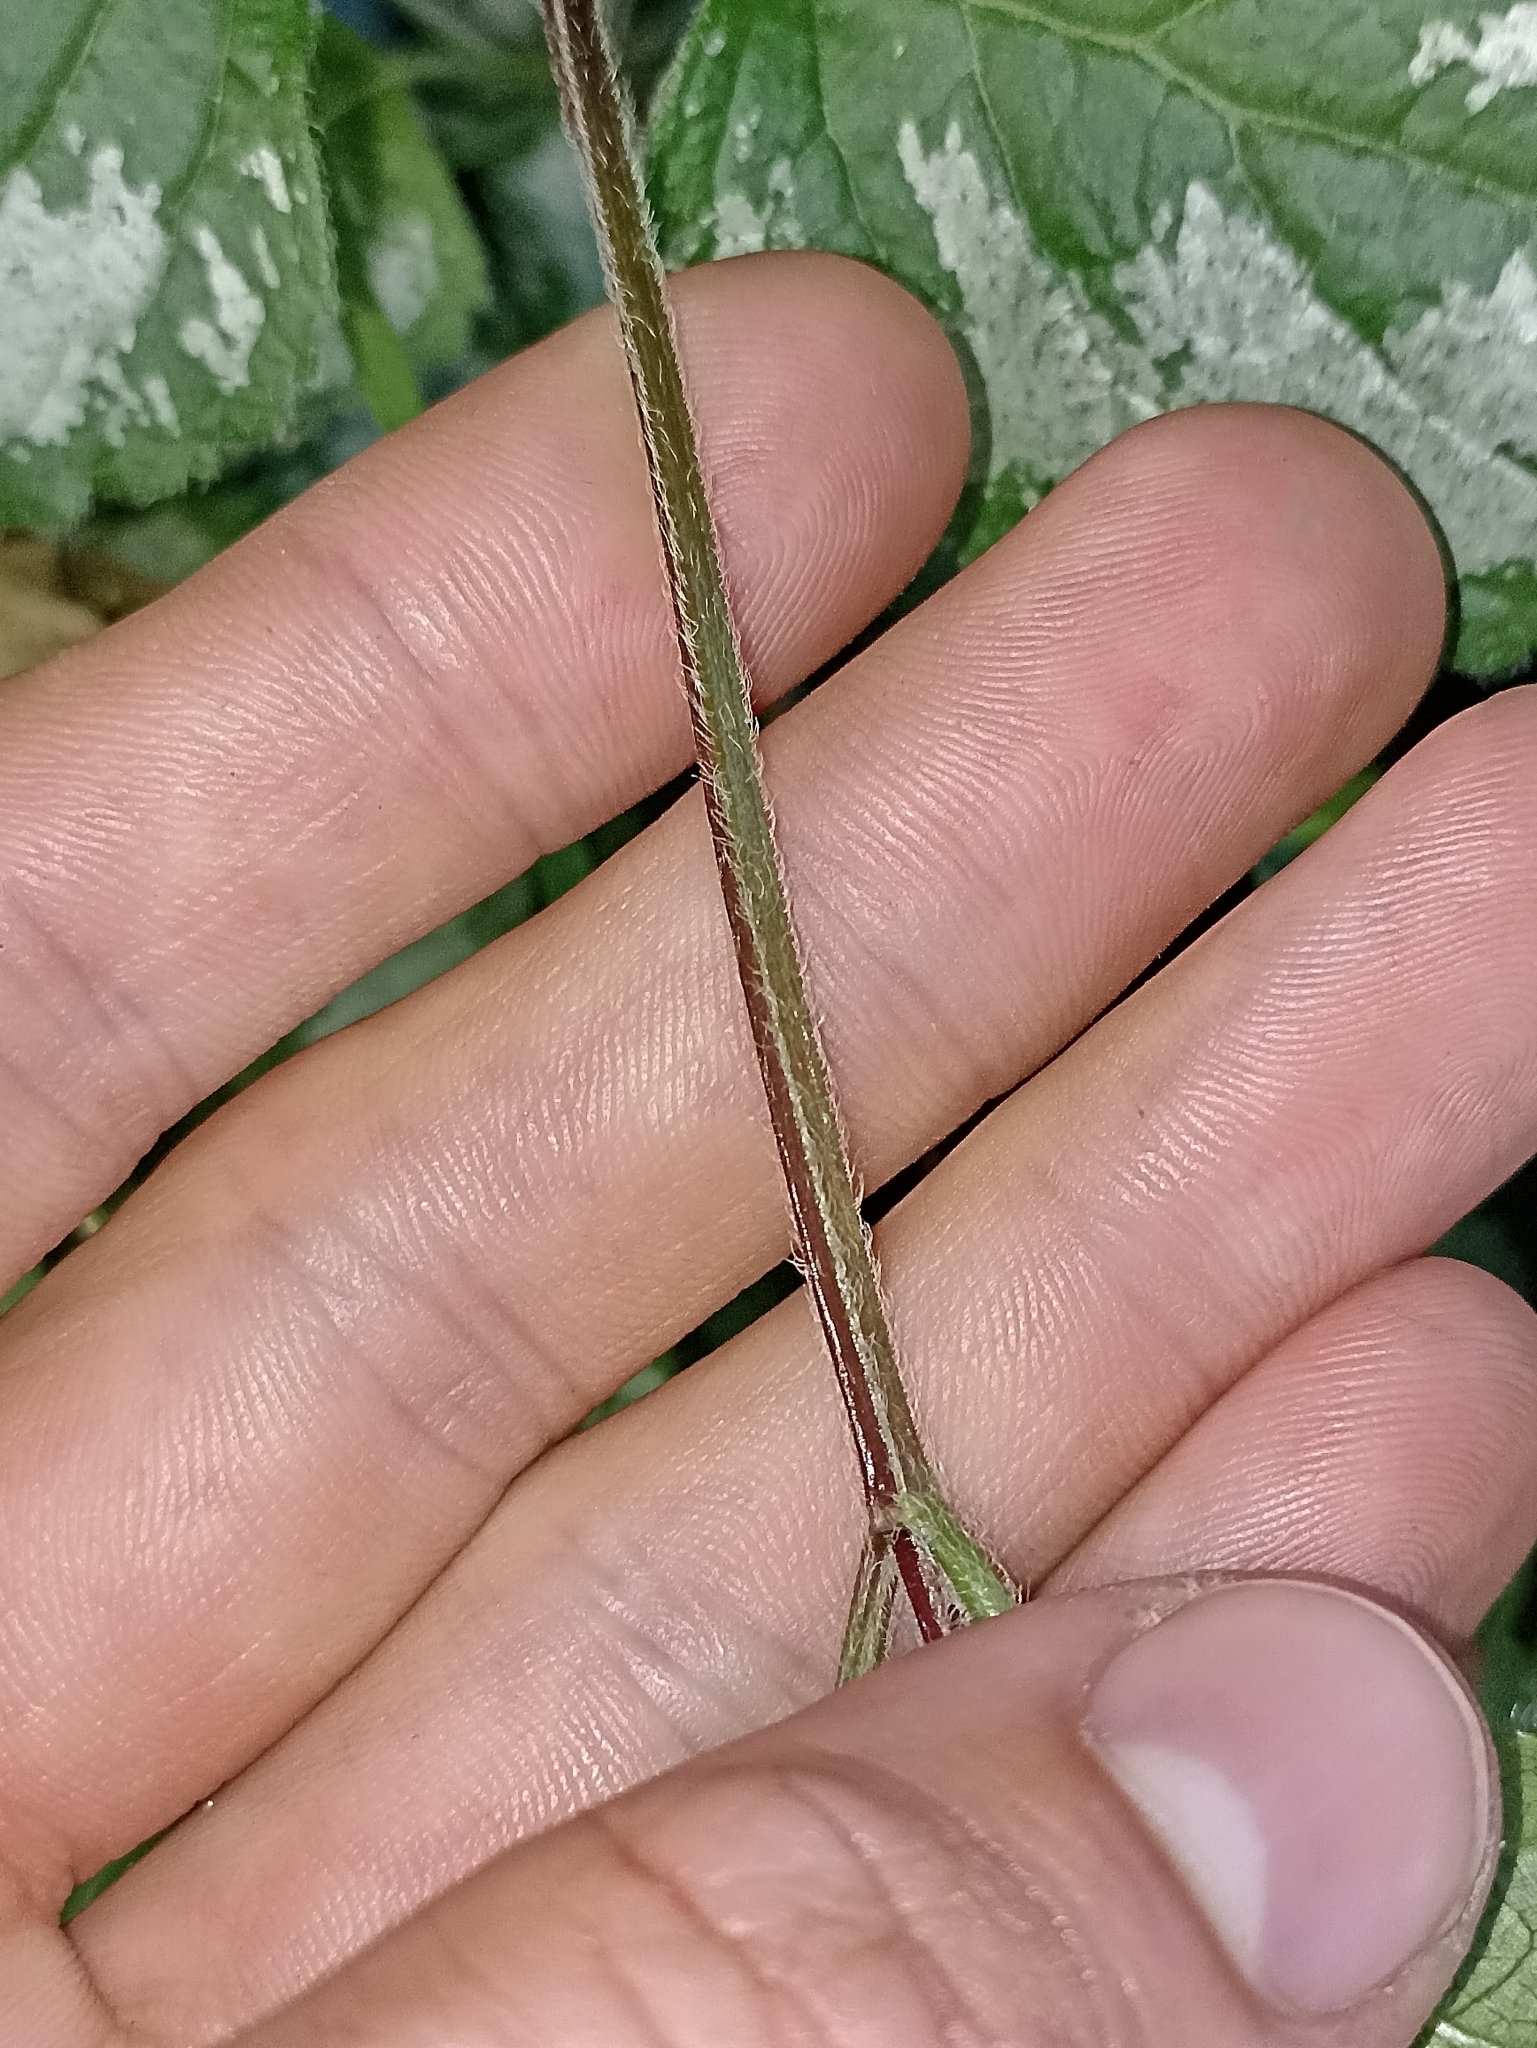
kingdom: Plantae
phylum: Tracheophyta
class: Magnoliopsida
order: Lamiales
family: Lamiaceae
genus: Lamium
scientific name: Lamium galeobdolon
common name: Yellow archangel
